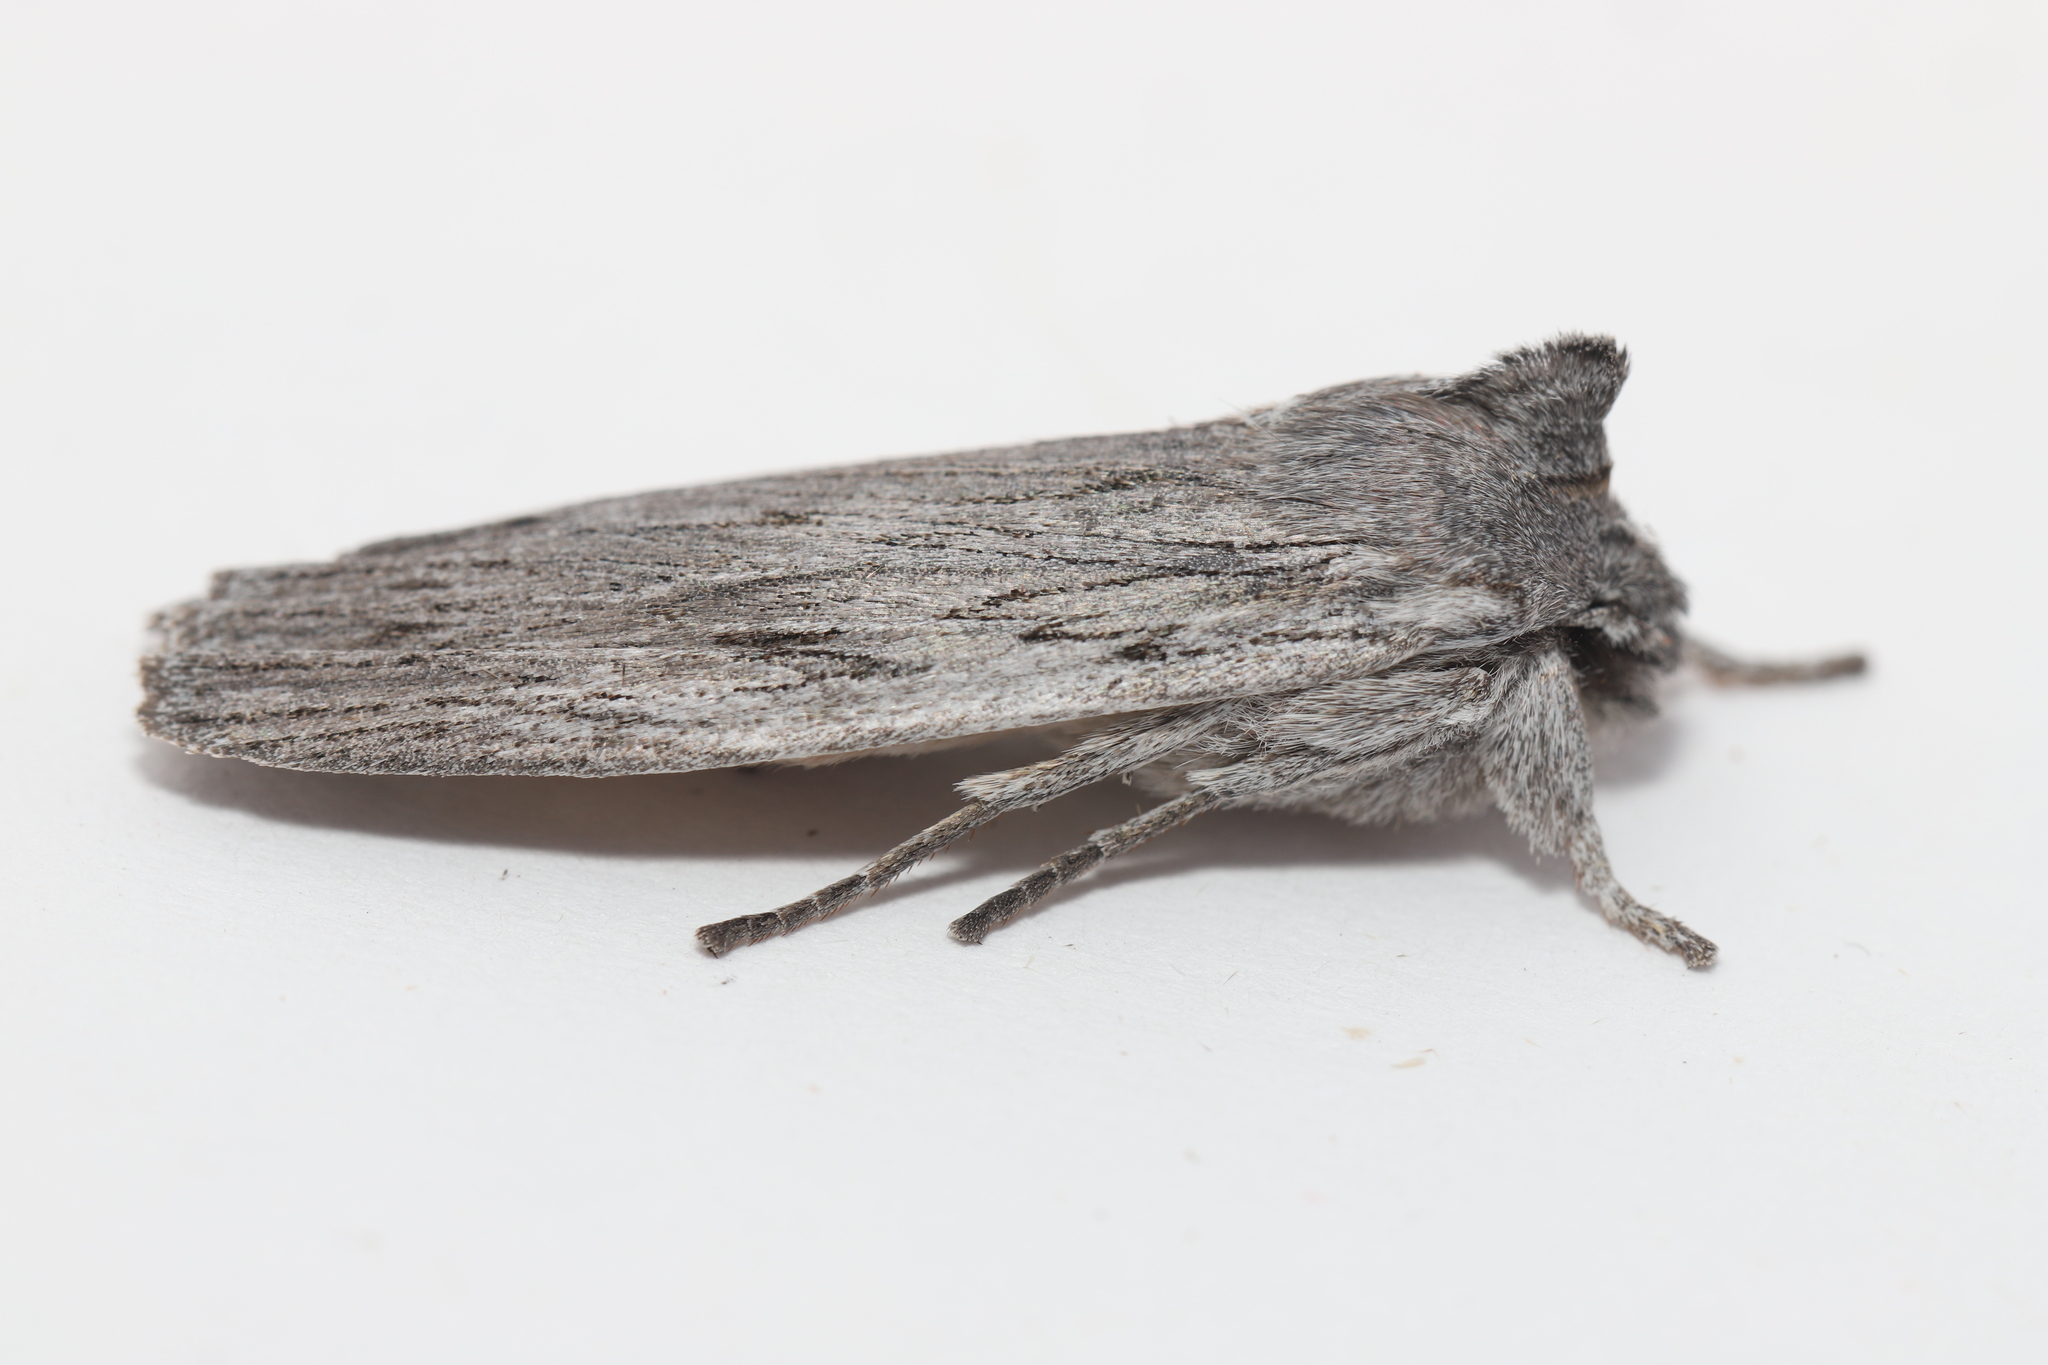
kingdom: Animalia
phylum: Arthropoda
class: Insecta
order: Lepidoptera
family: Noctuidae
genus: Lithophane
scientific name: Lithophane fagina
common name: Hoary pinion moth
